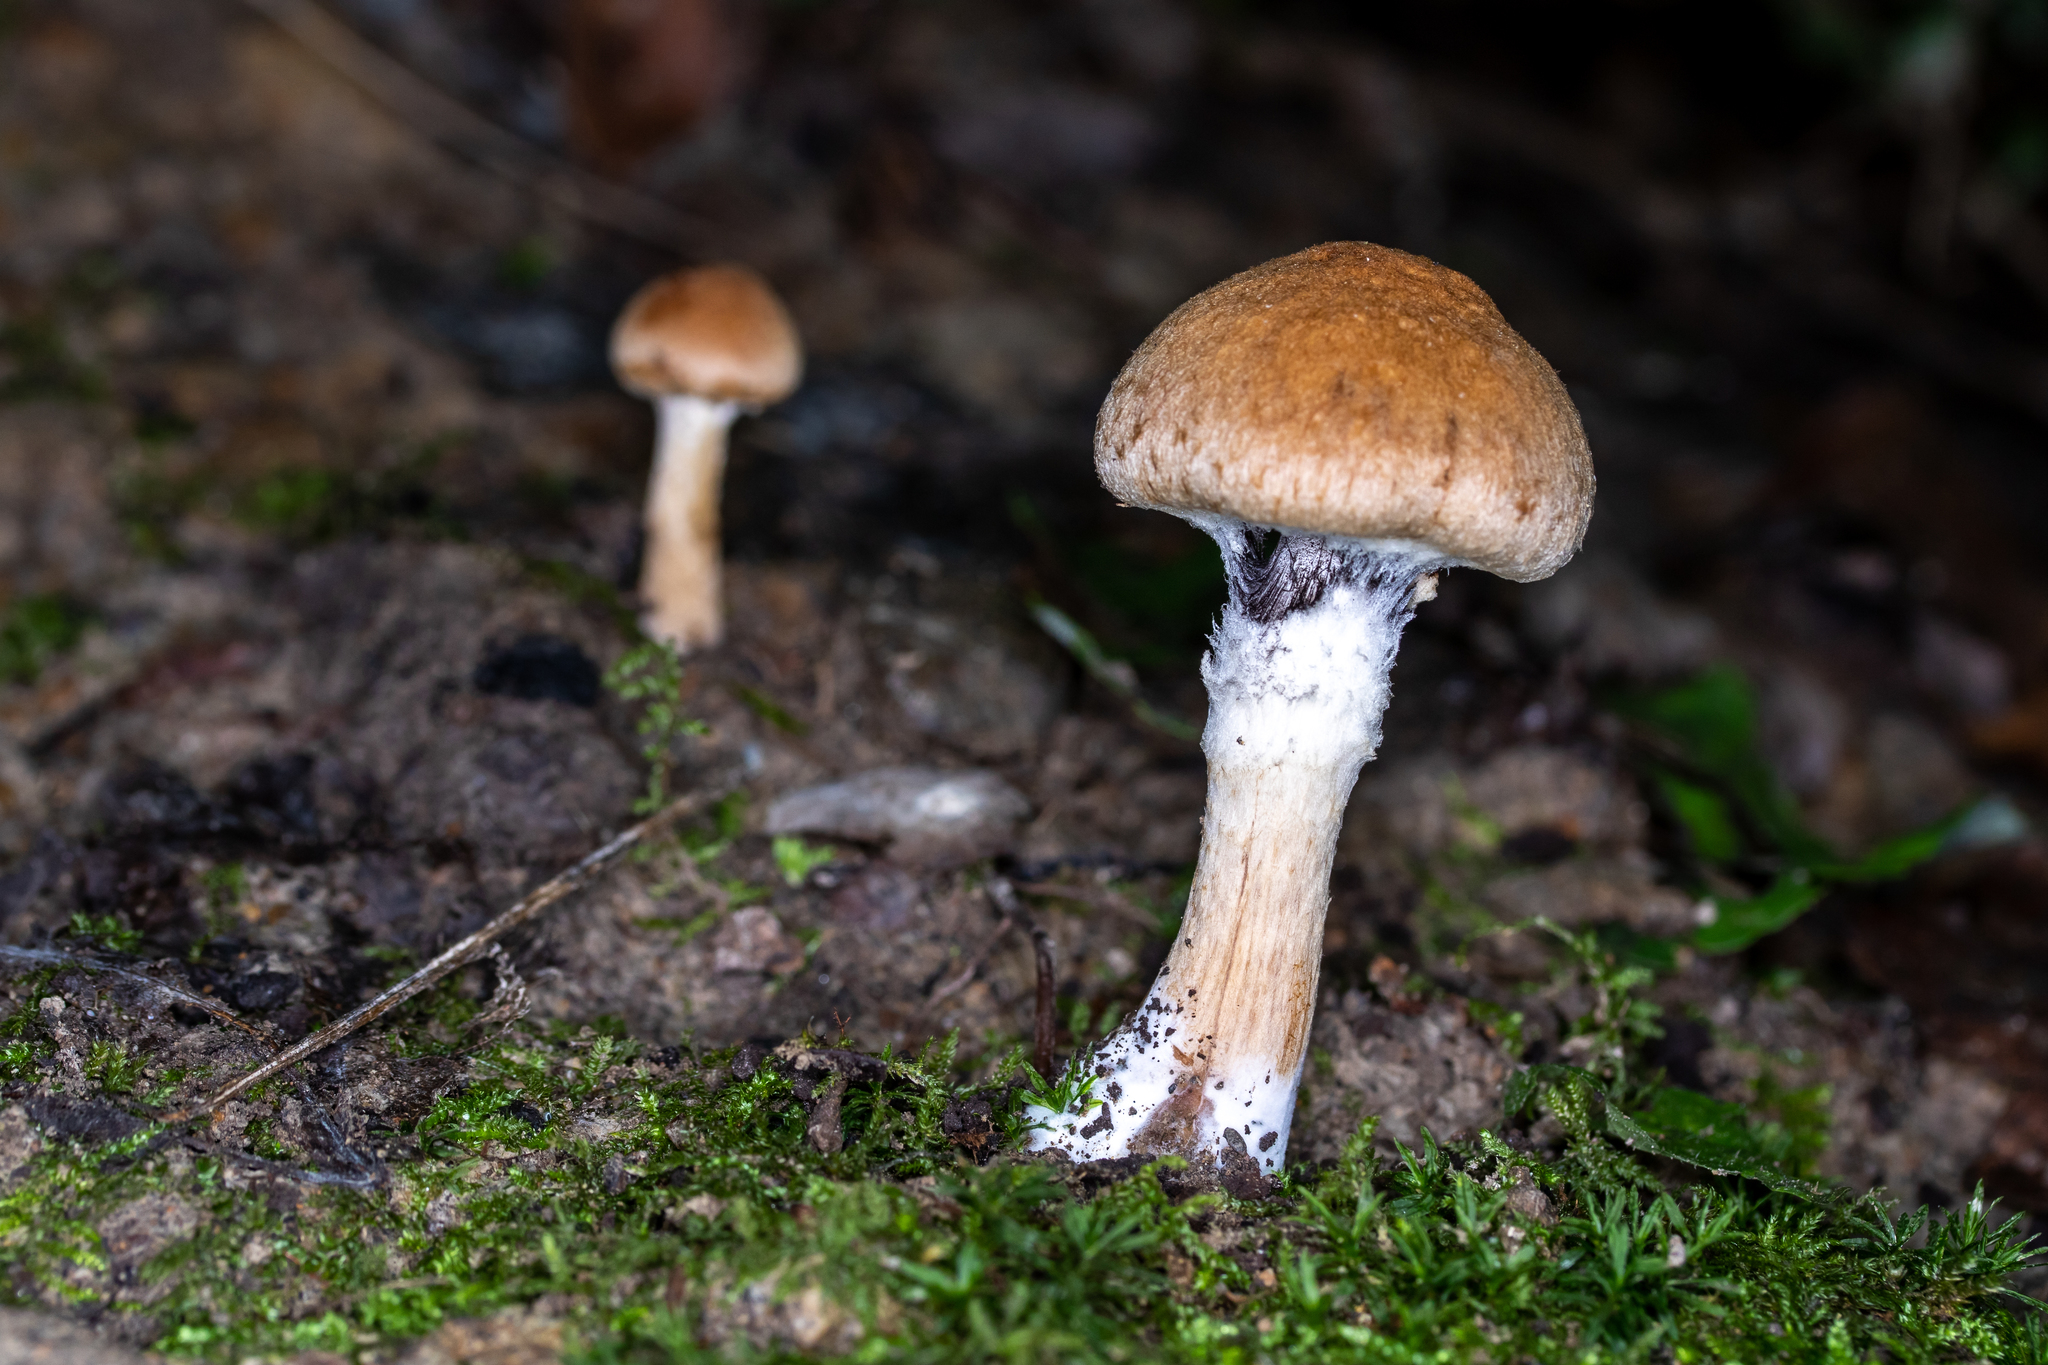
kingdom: Fungi
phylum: Basidiomycota
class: Agaricomycetes
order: Agaricales
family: Psathyrellaceae
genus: Lacrymaria
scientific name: Lacrymaria lacrymabunda
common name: Weeping widow
